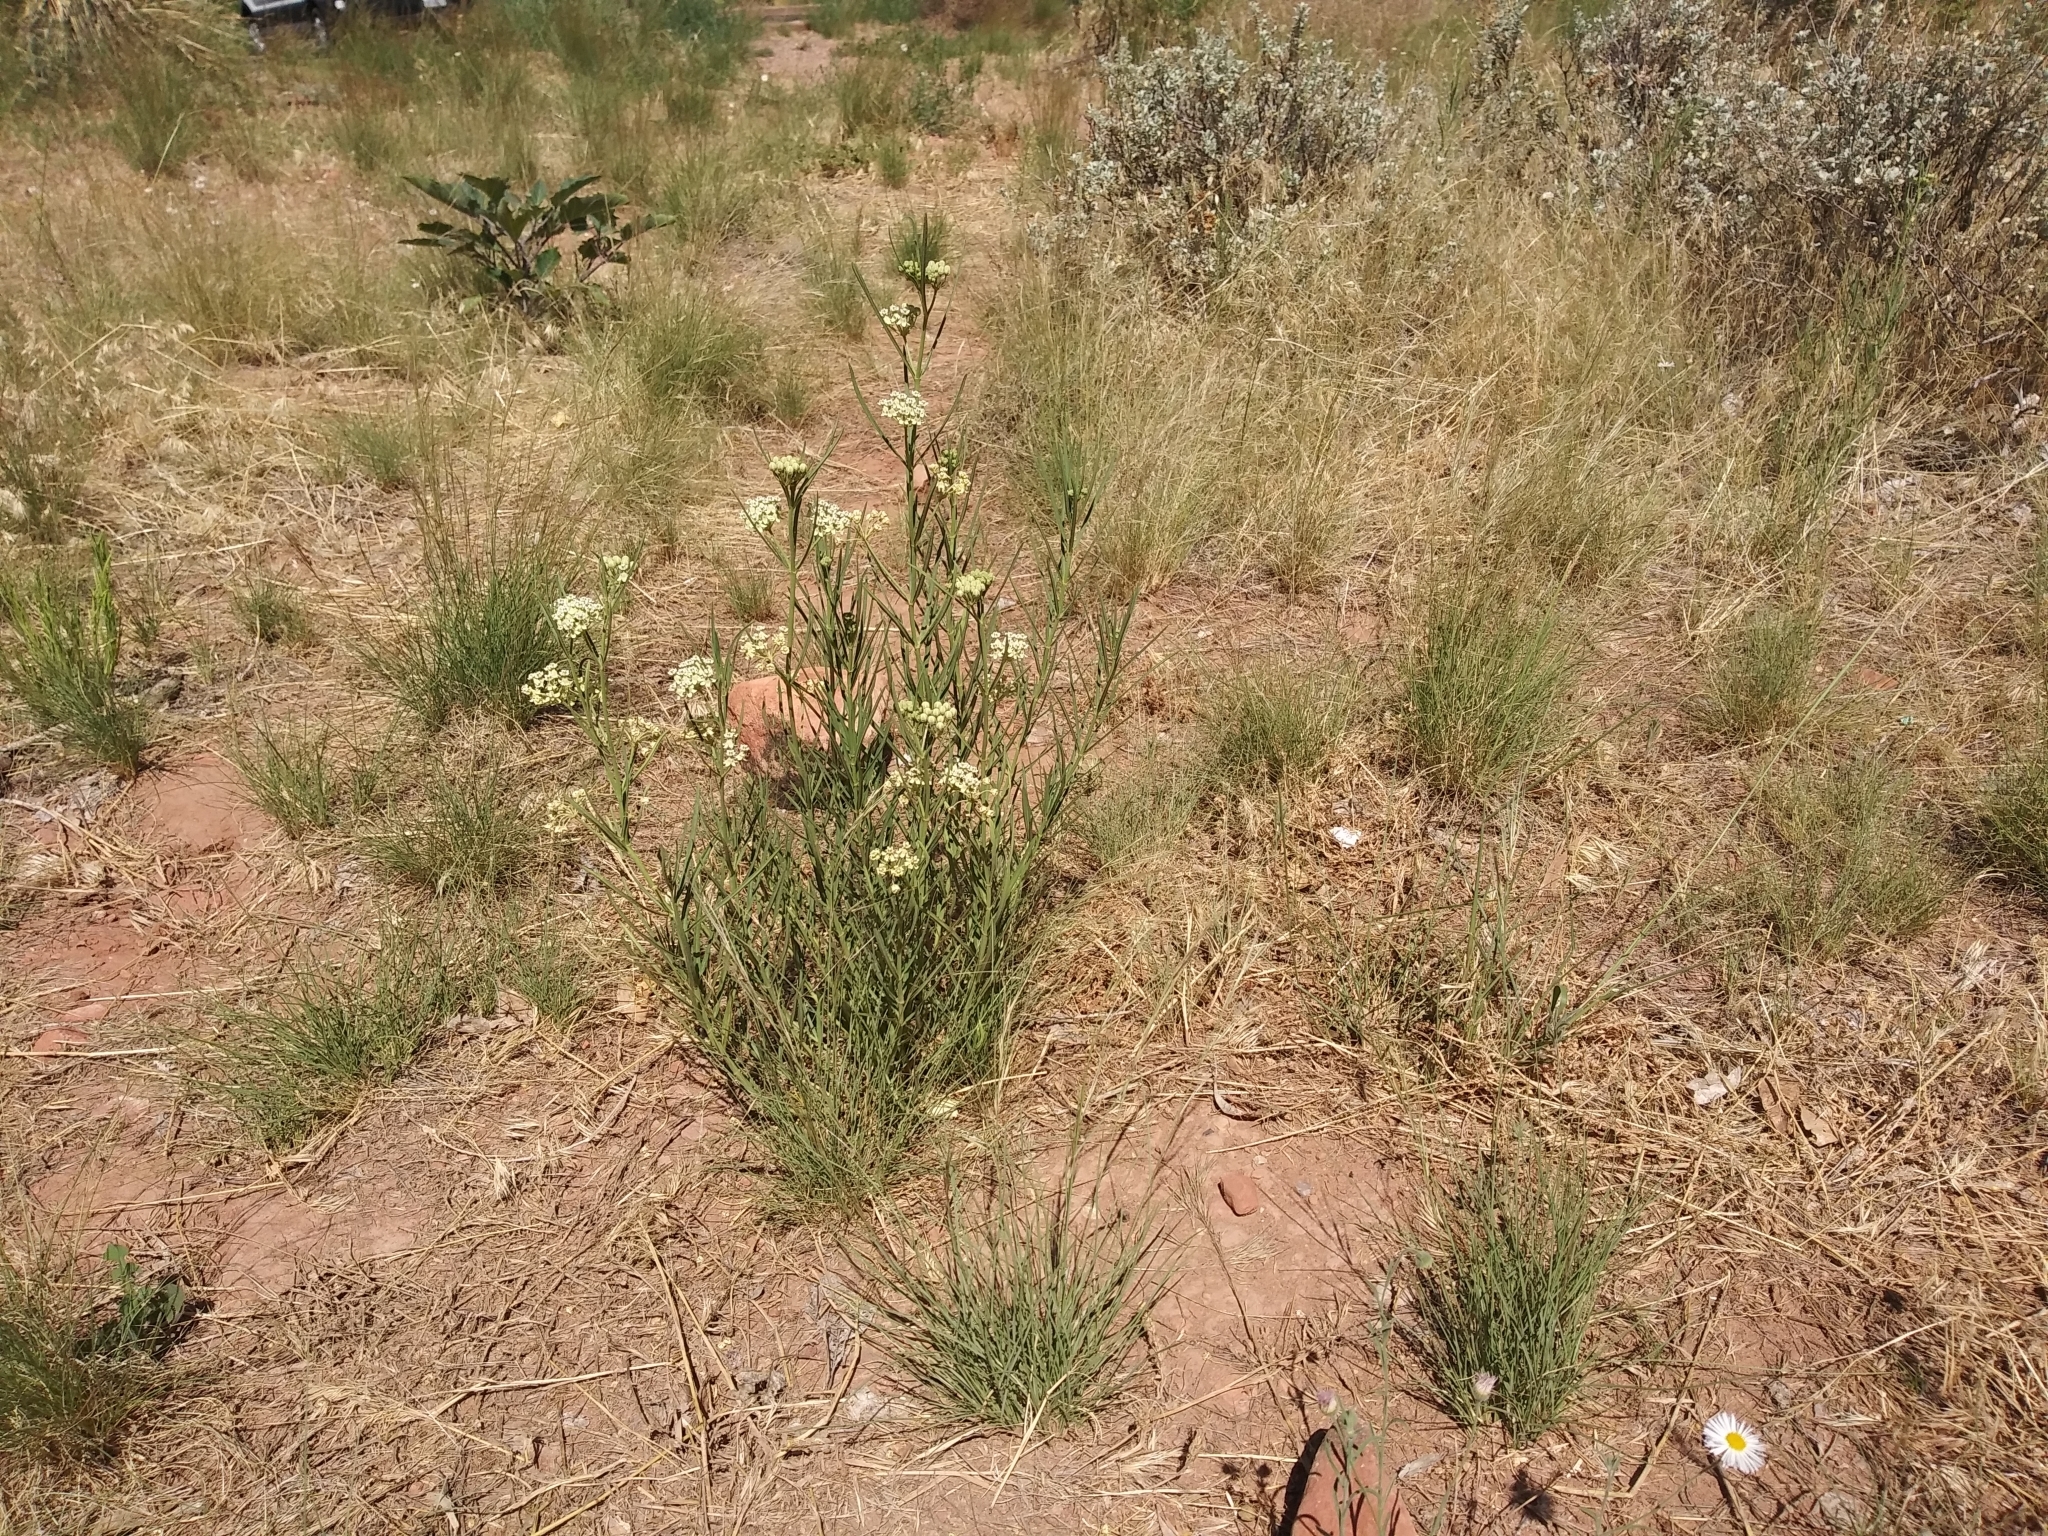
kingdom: Plantae
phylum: Tracheophyta
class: Magnoliopsida
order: Gentianales
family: Apocynaceae
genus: Asclepias
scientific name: Asclepias subverticillata
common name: Horsetail milkweed
